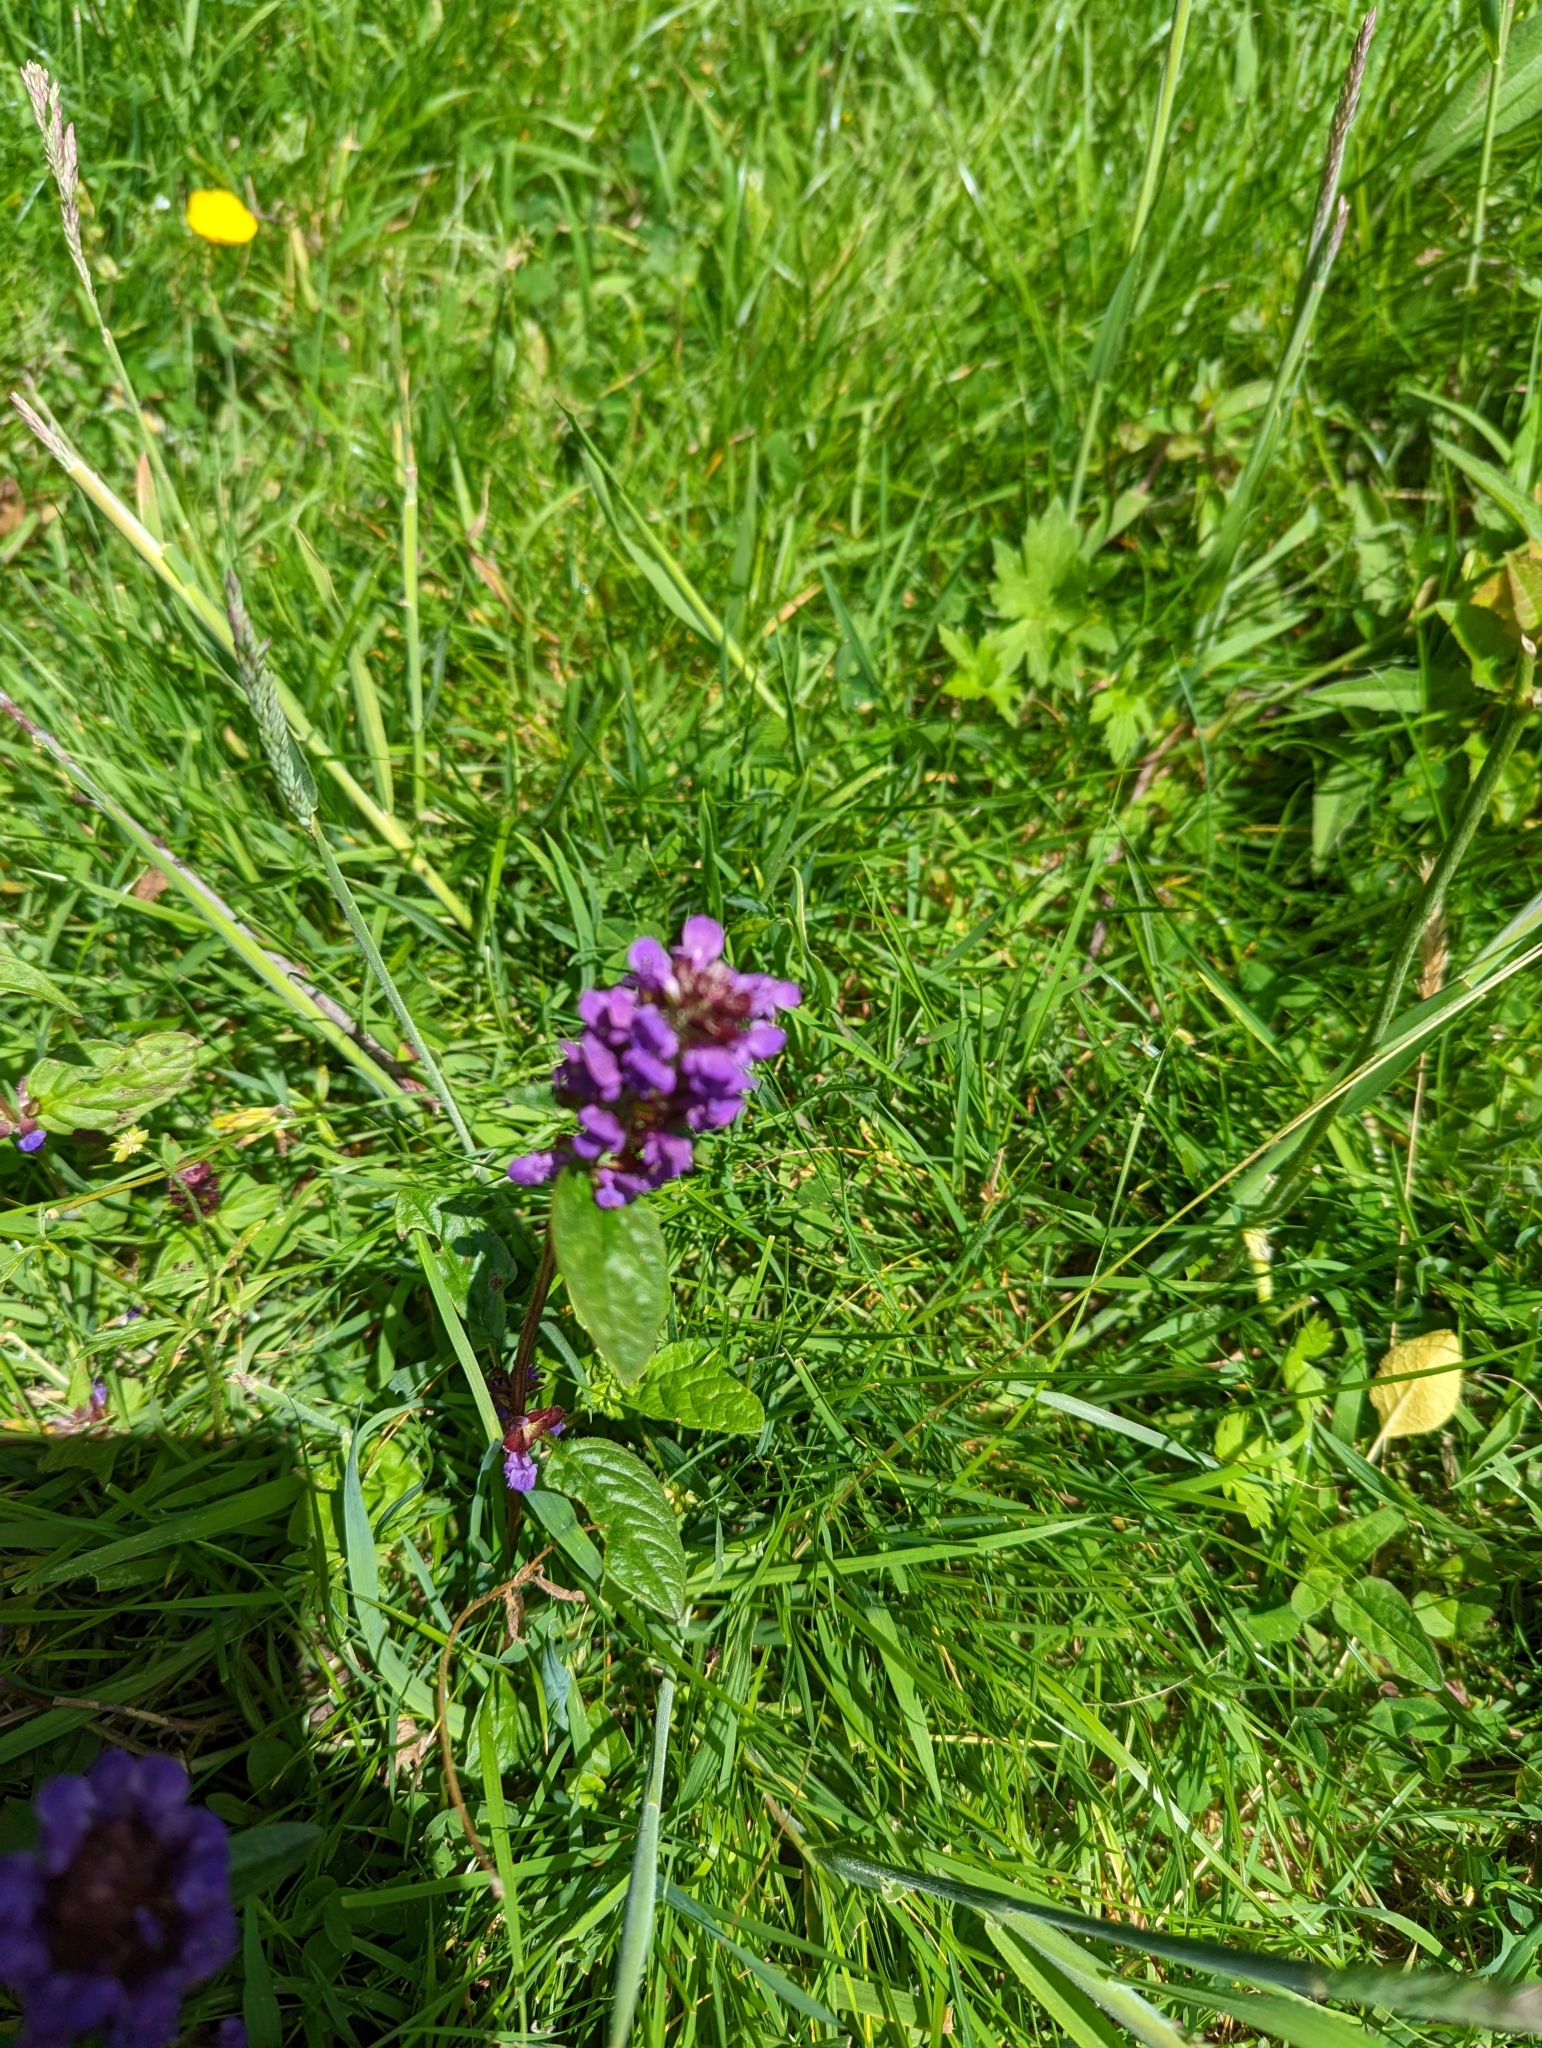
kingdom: Plantae
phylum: Tracheophyta
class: Magnoliopsida
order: Lamiales
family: Lamiaceae
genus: Prunella
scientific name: Prunella vulgaris
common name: Heal-all
